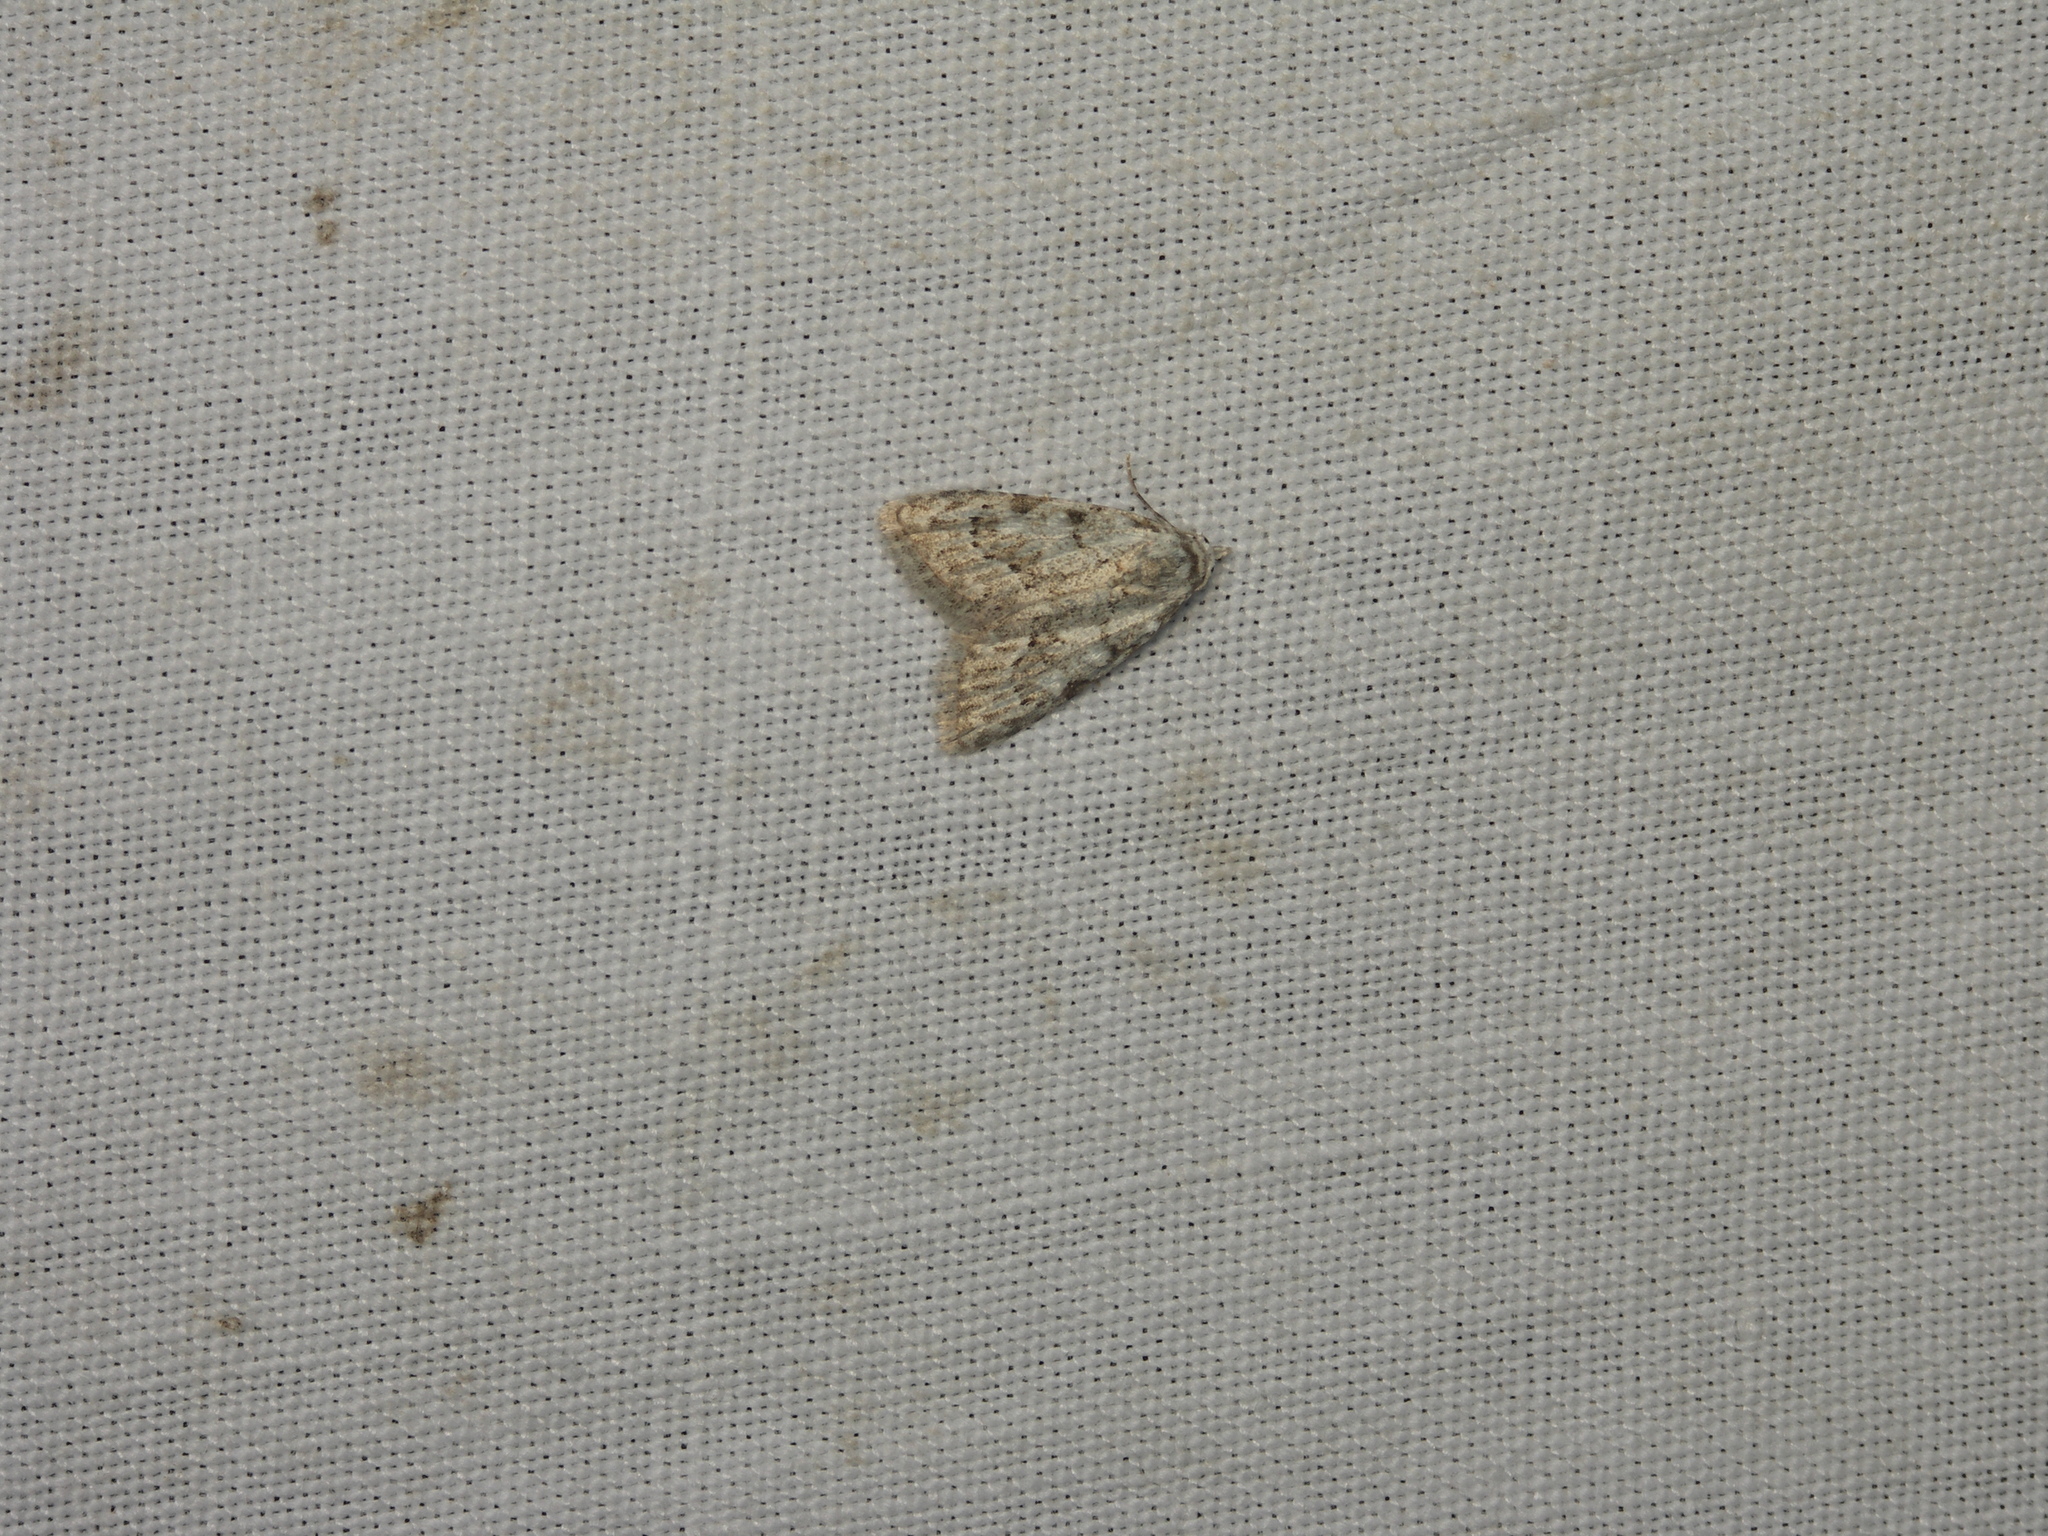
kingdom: Animalia
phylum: Arthropoda
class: Insecta
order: Lepidoptera
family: Nolidae
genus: Nola
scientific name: Nola confusalis
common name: Least black arches
